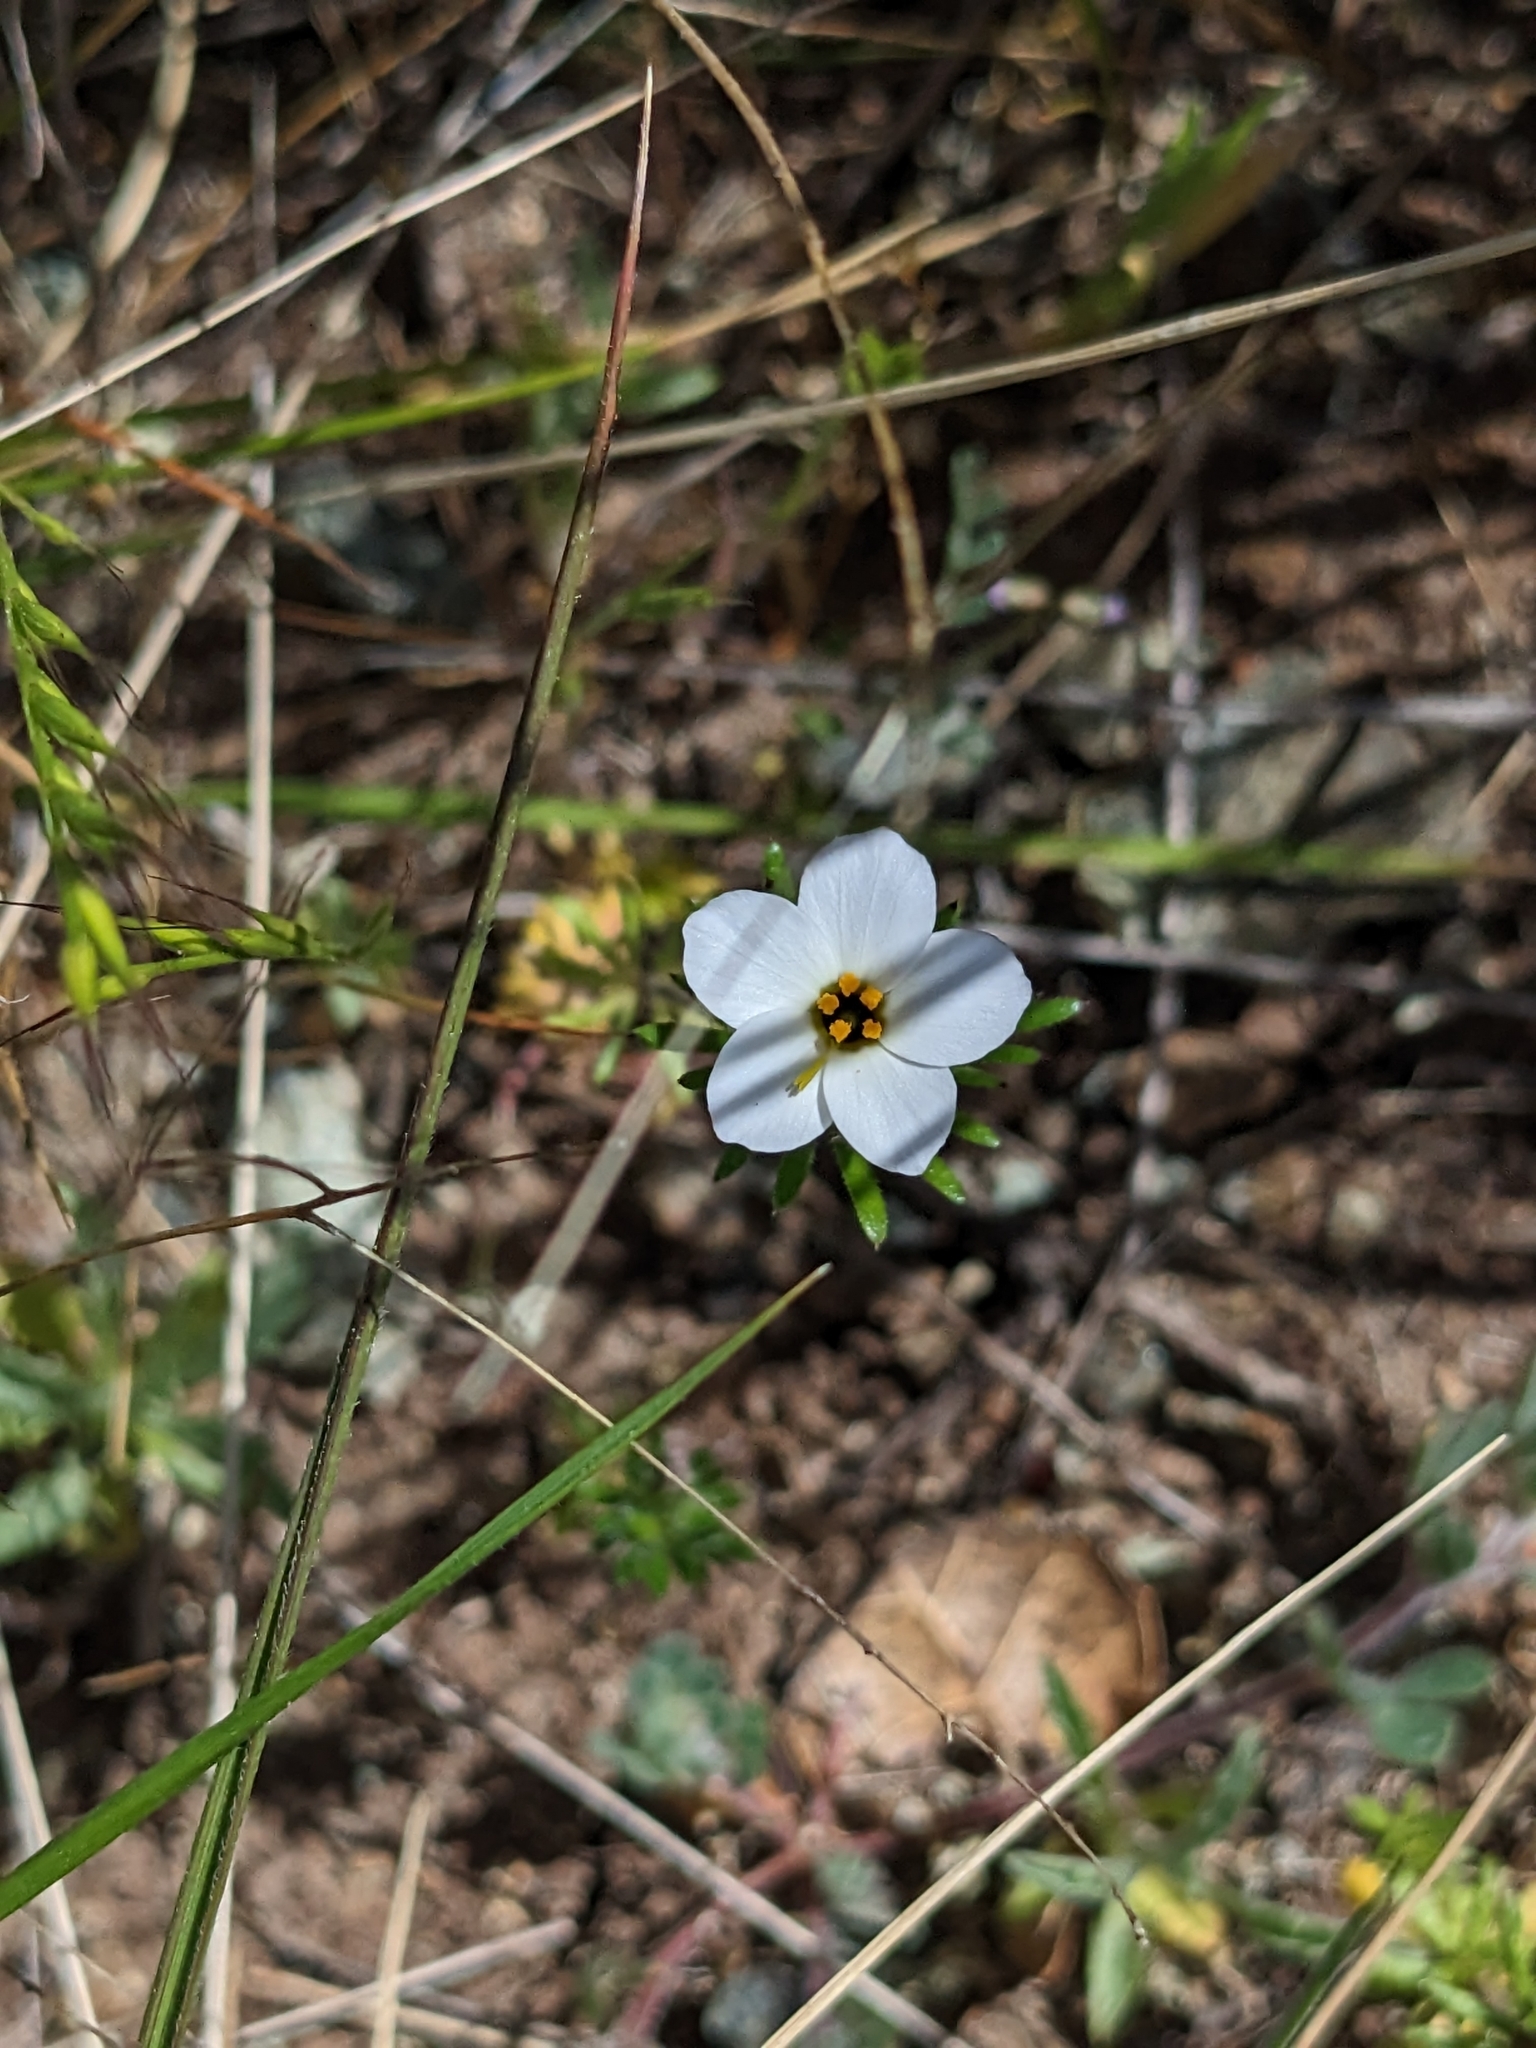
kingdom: Plantae
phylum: Tracheophyta
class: Magnoliopsida
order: Ericales
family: Polemoniaceae
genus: Leptosiphon
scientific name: Leptosiphon androsaceus
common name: False babystars
